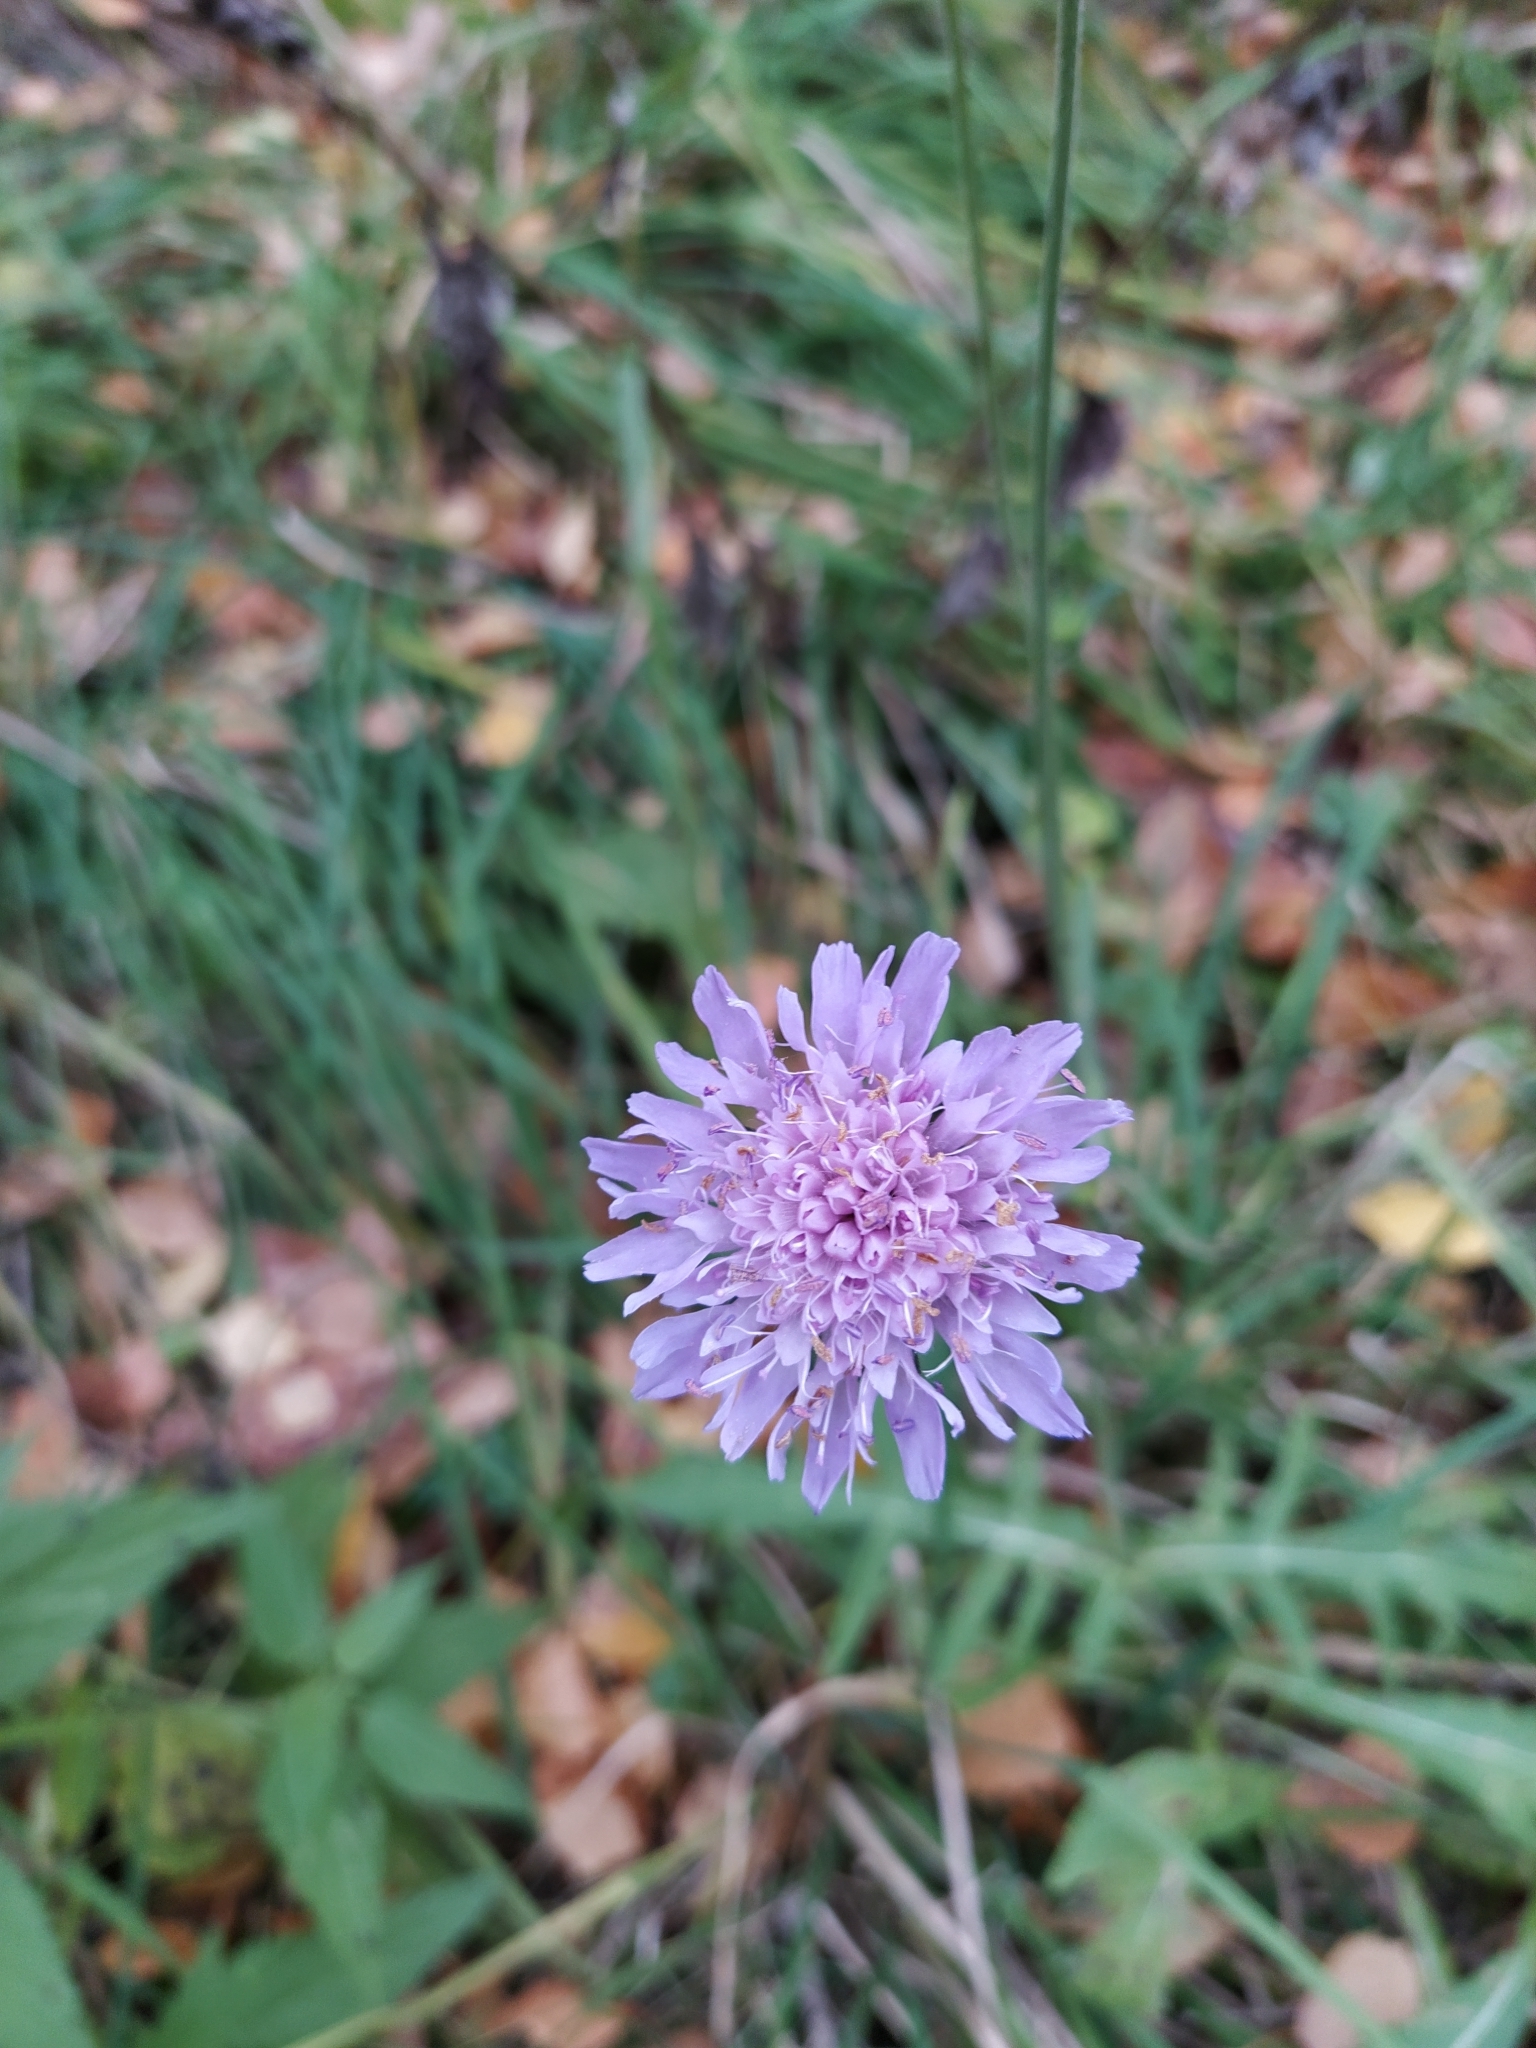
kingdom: Plantae
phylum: Tracheophyta
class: Magnoliopsida
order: Dipsacales
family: Caprifoliaceae
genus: Knautia
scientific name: Knautia arvensis
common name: Field scabiosa
